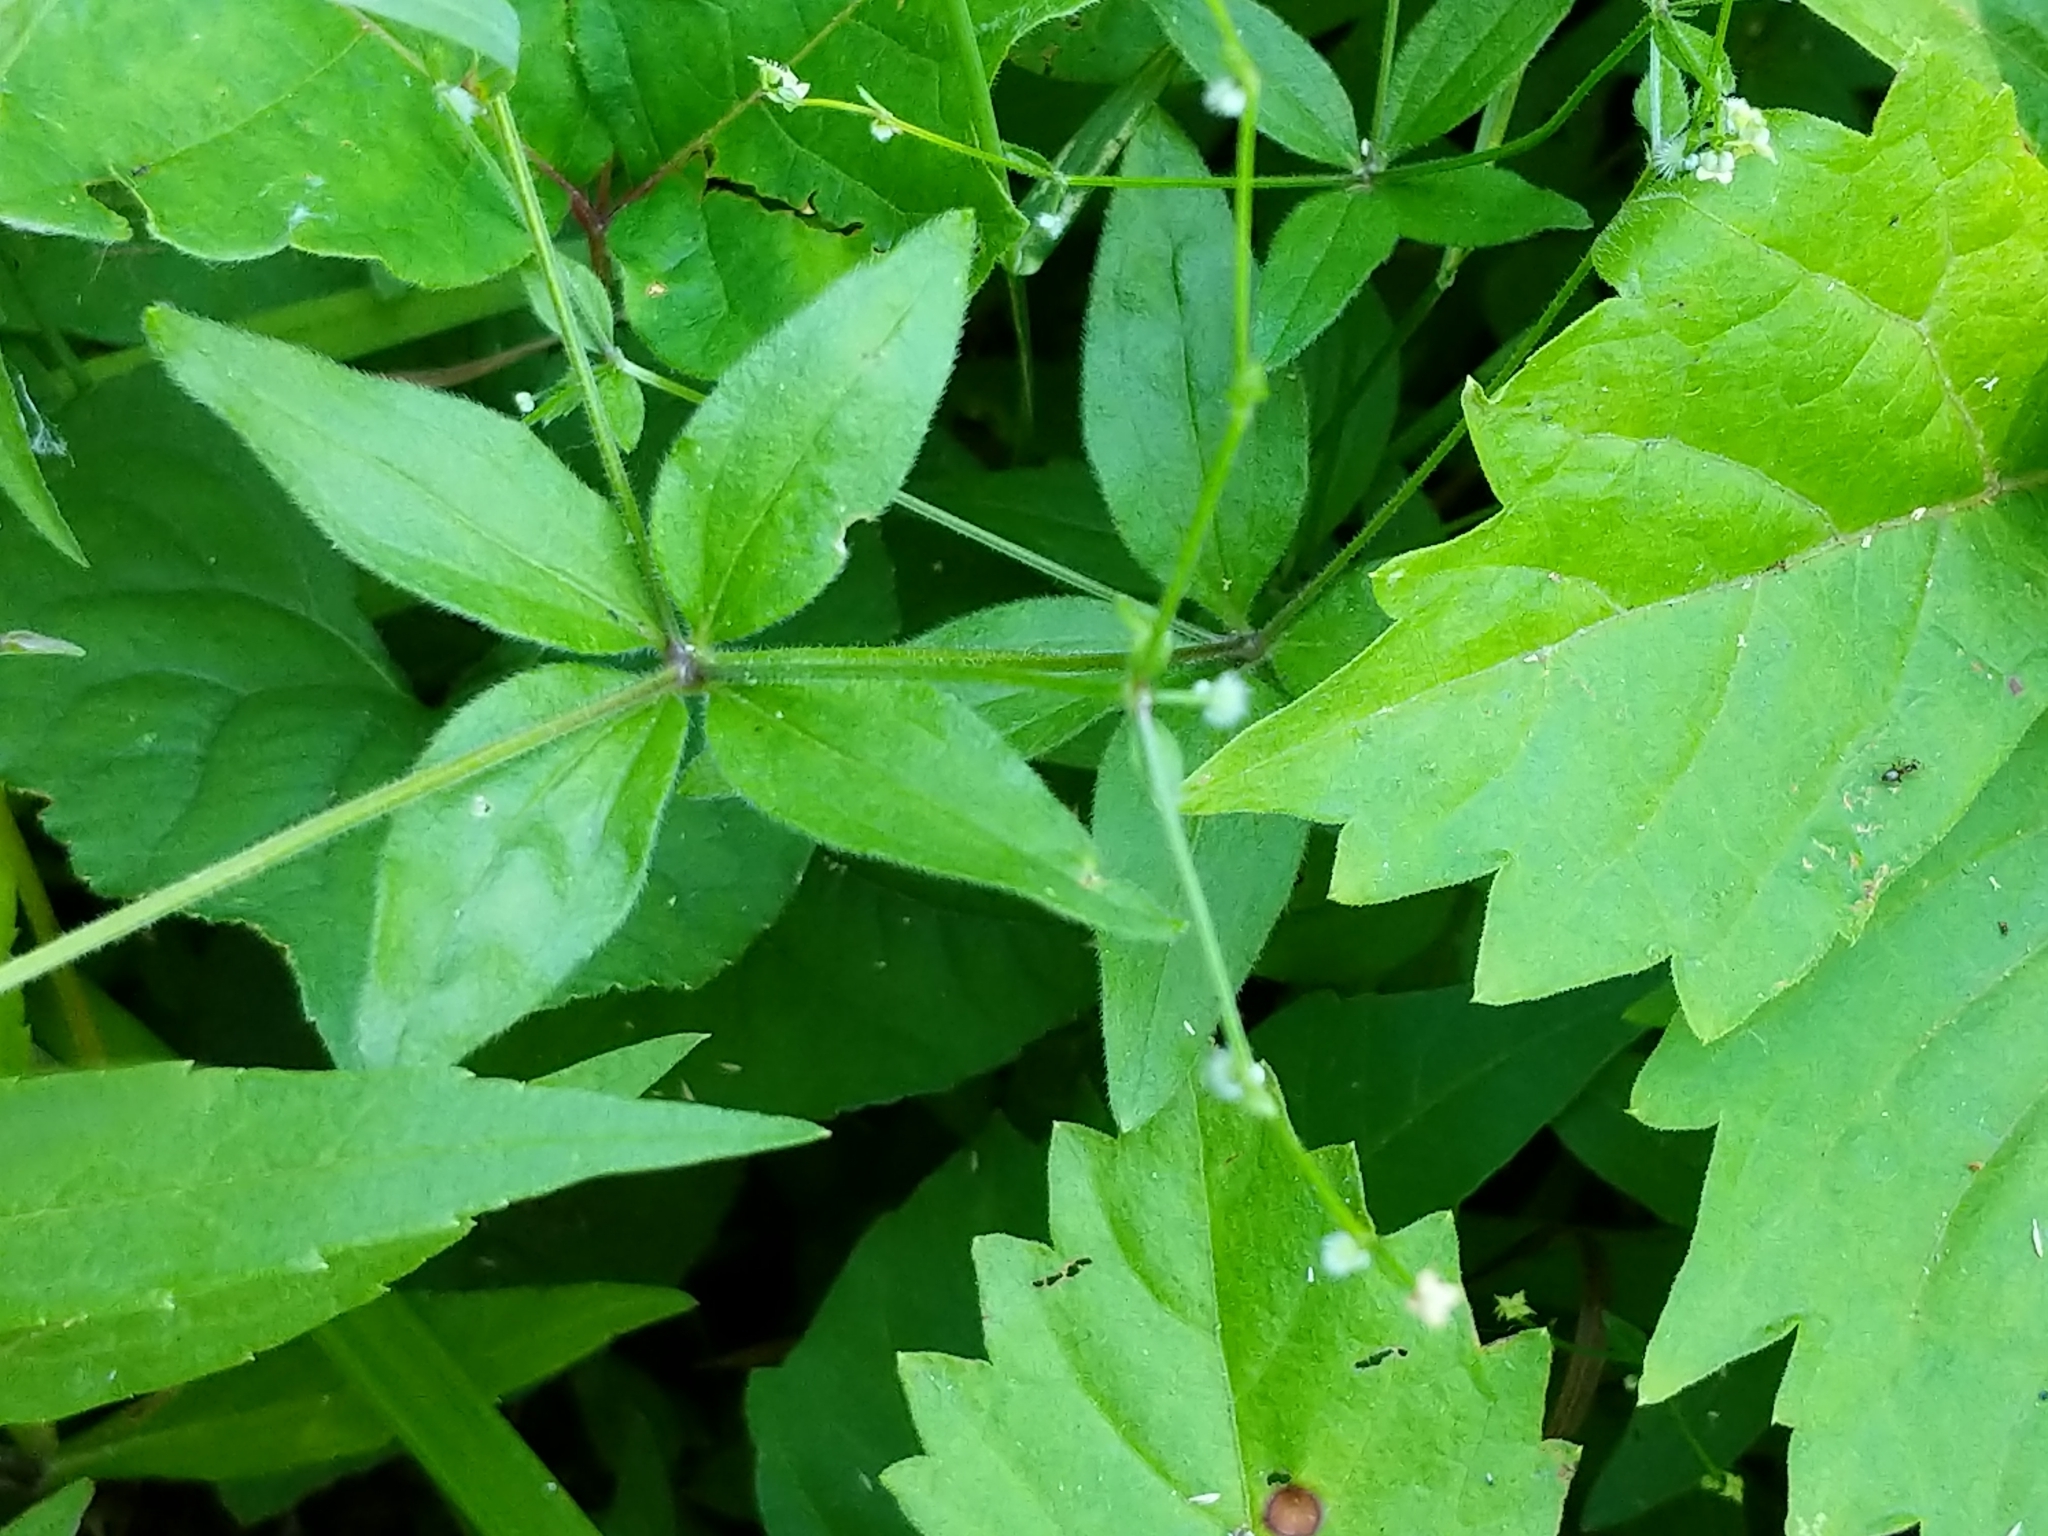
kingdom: Plantae
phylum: Tracheophyta
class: Magnoliopsida
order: Gentianales
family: Rubiaceae
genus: Galium
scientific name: Galium circaezans
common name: Forest bedstraw
